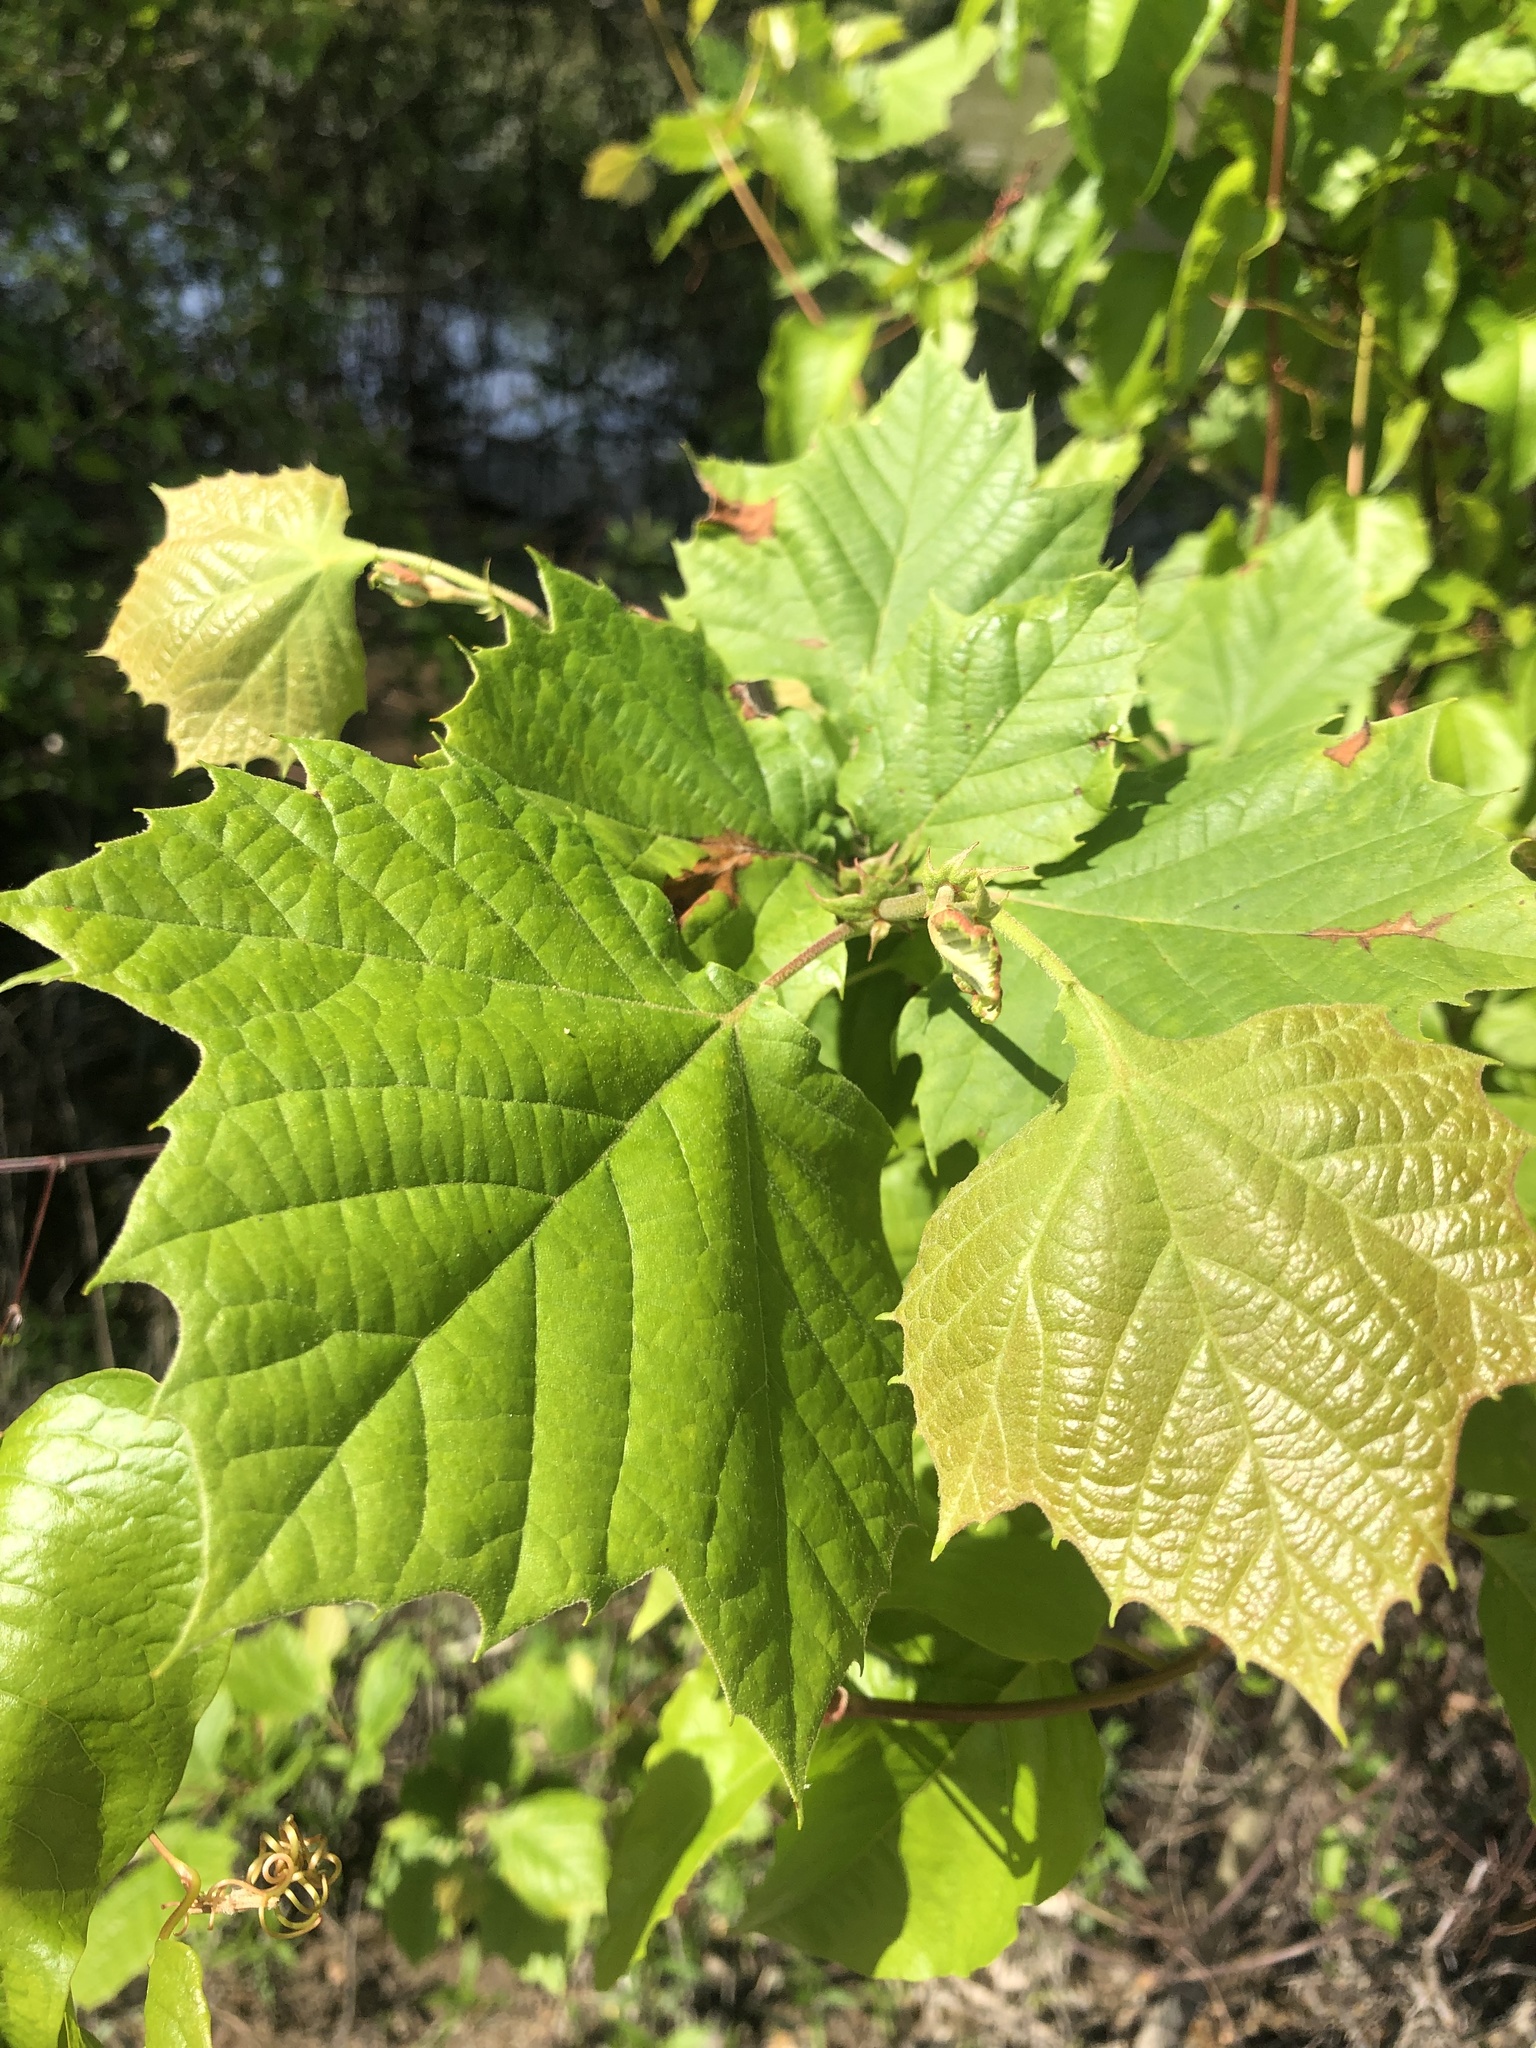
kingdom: Plantae
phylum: Tracheophyta
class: Magnoliopsida
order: Proteales
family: Platanaceae
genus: Platanus
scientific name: Platanus occidentalis
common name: American sycamore
